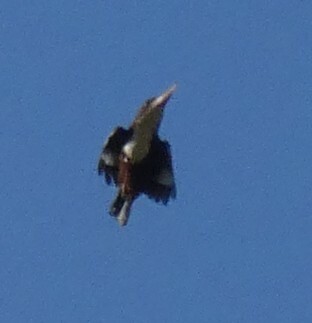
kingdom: Animalia
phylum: Chordata
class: Aves
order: Coraciiformes
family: Alcedinidae
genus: Halcyon
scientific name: Halcyon smyrnensis
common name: White-throated kingfisher
